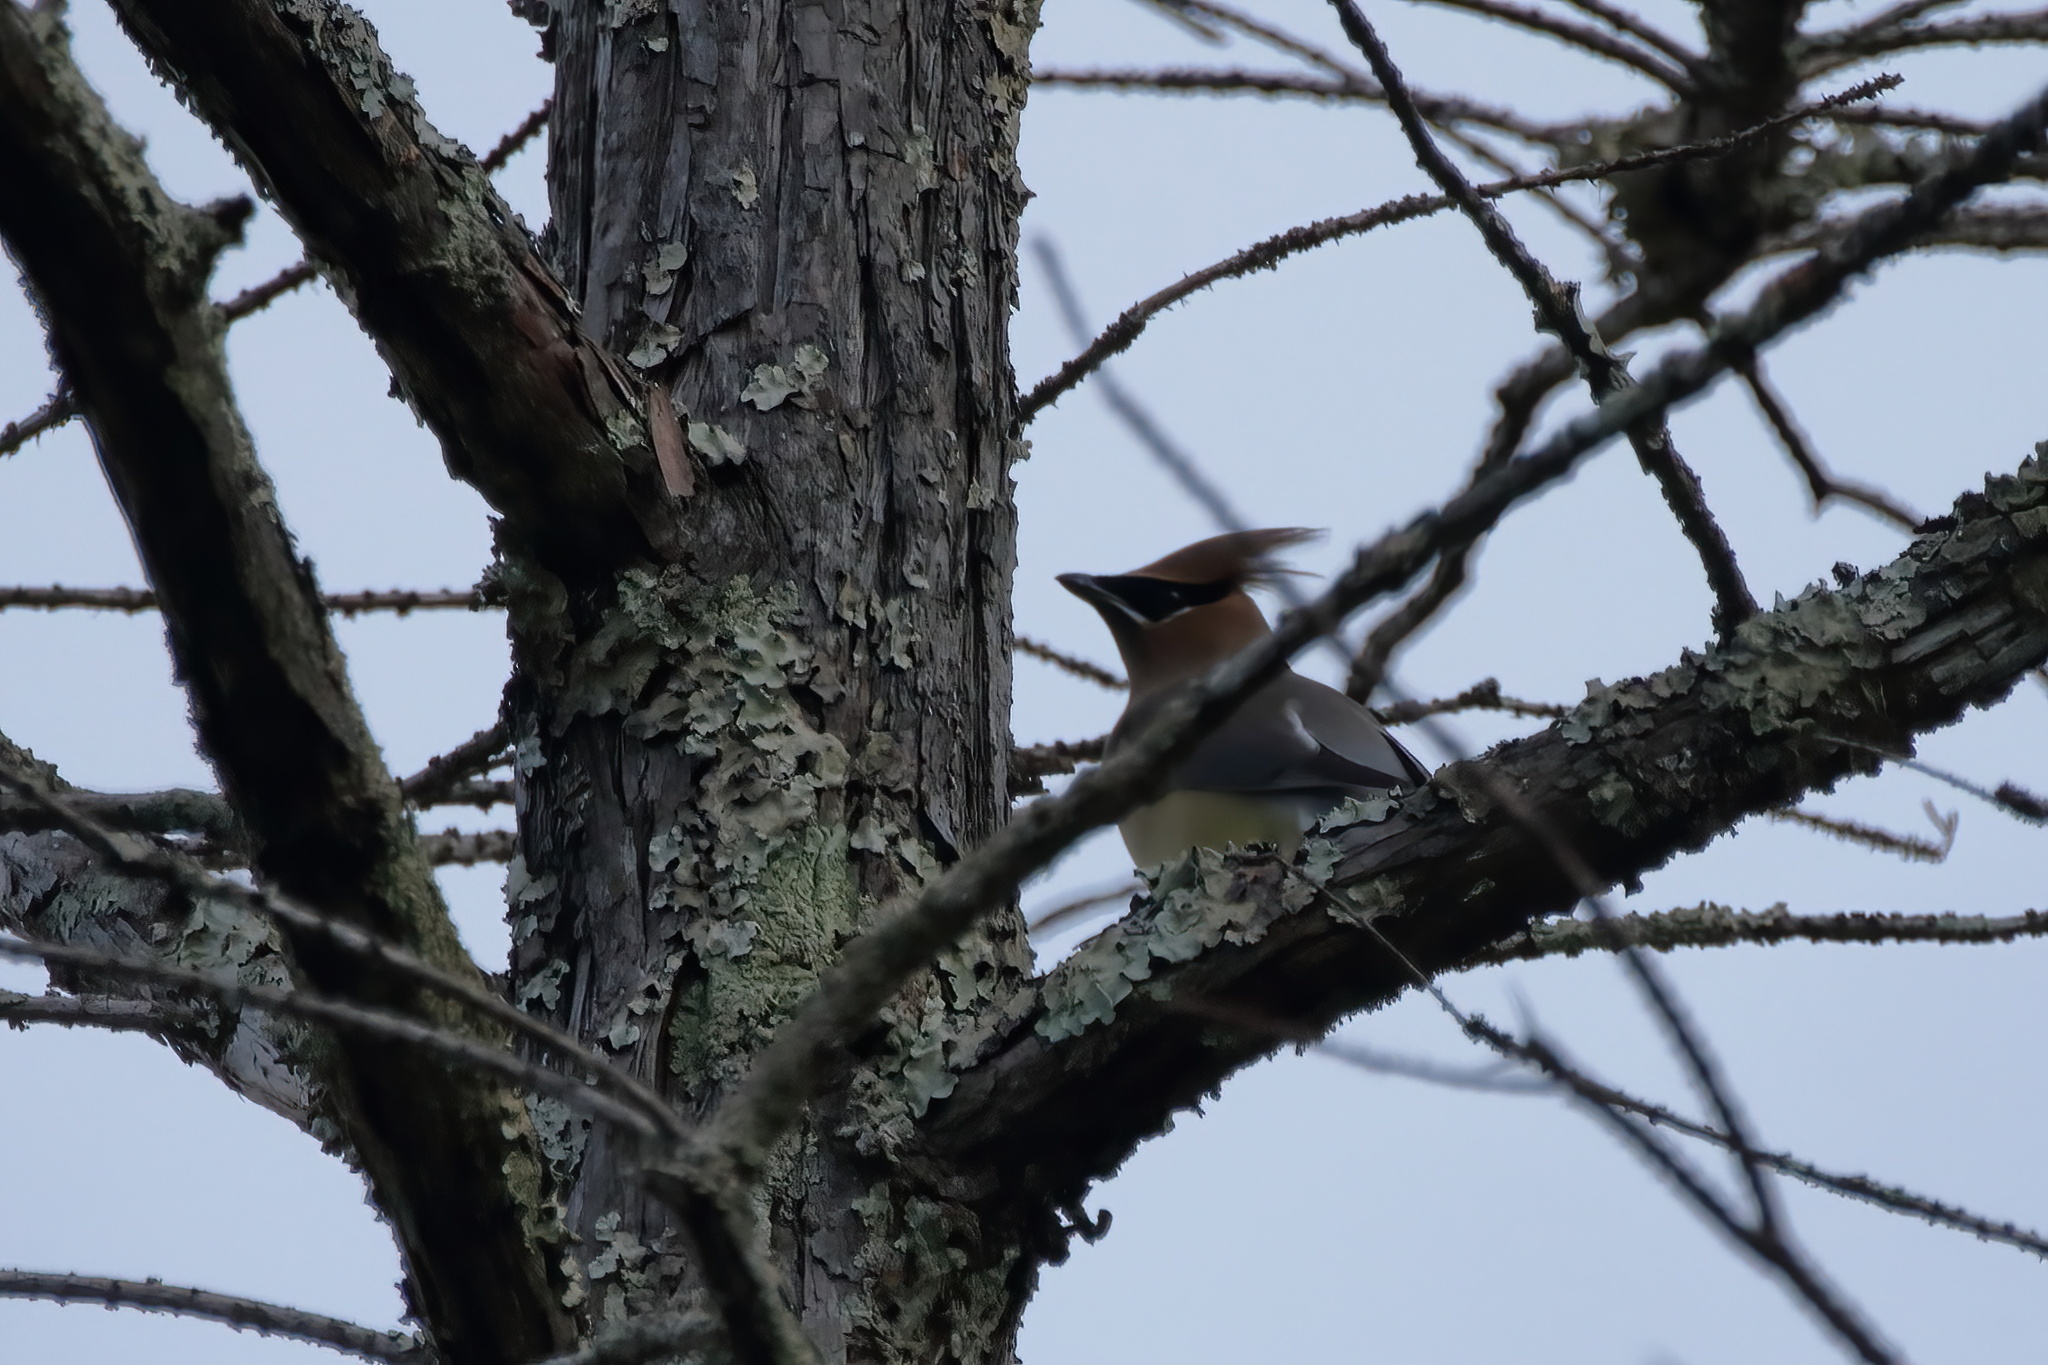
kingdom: Animalia
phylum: Chordata
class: Aves
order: Passeriformes
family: Bombycillidae
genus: Bombycilla
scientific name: Bombycilla cedrorum
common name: Cedar waxwing
